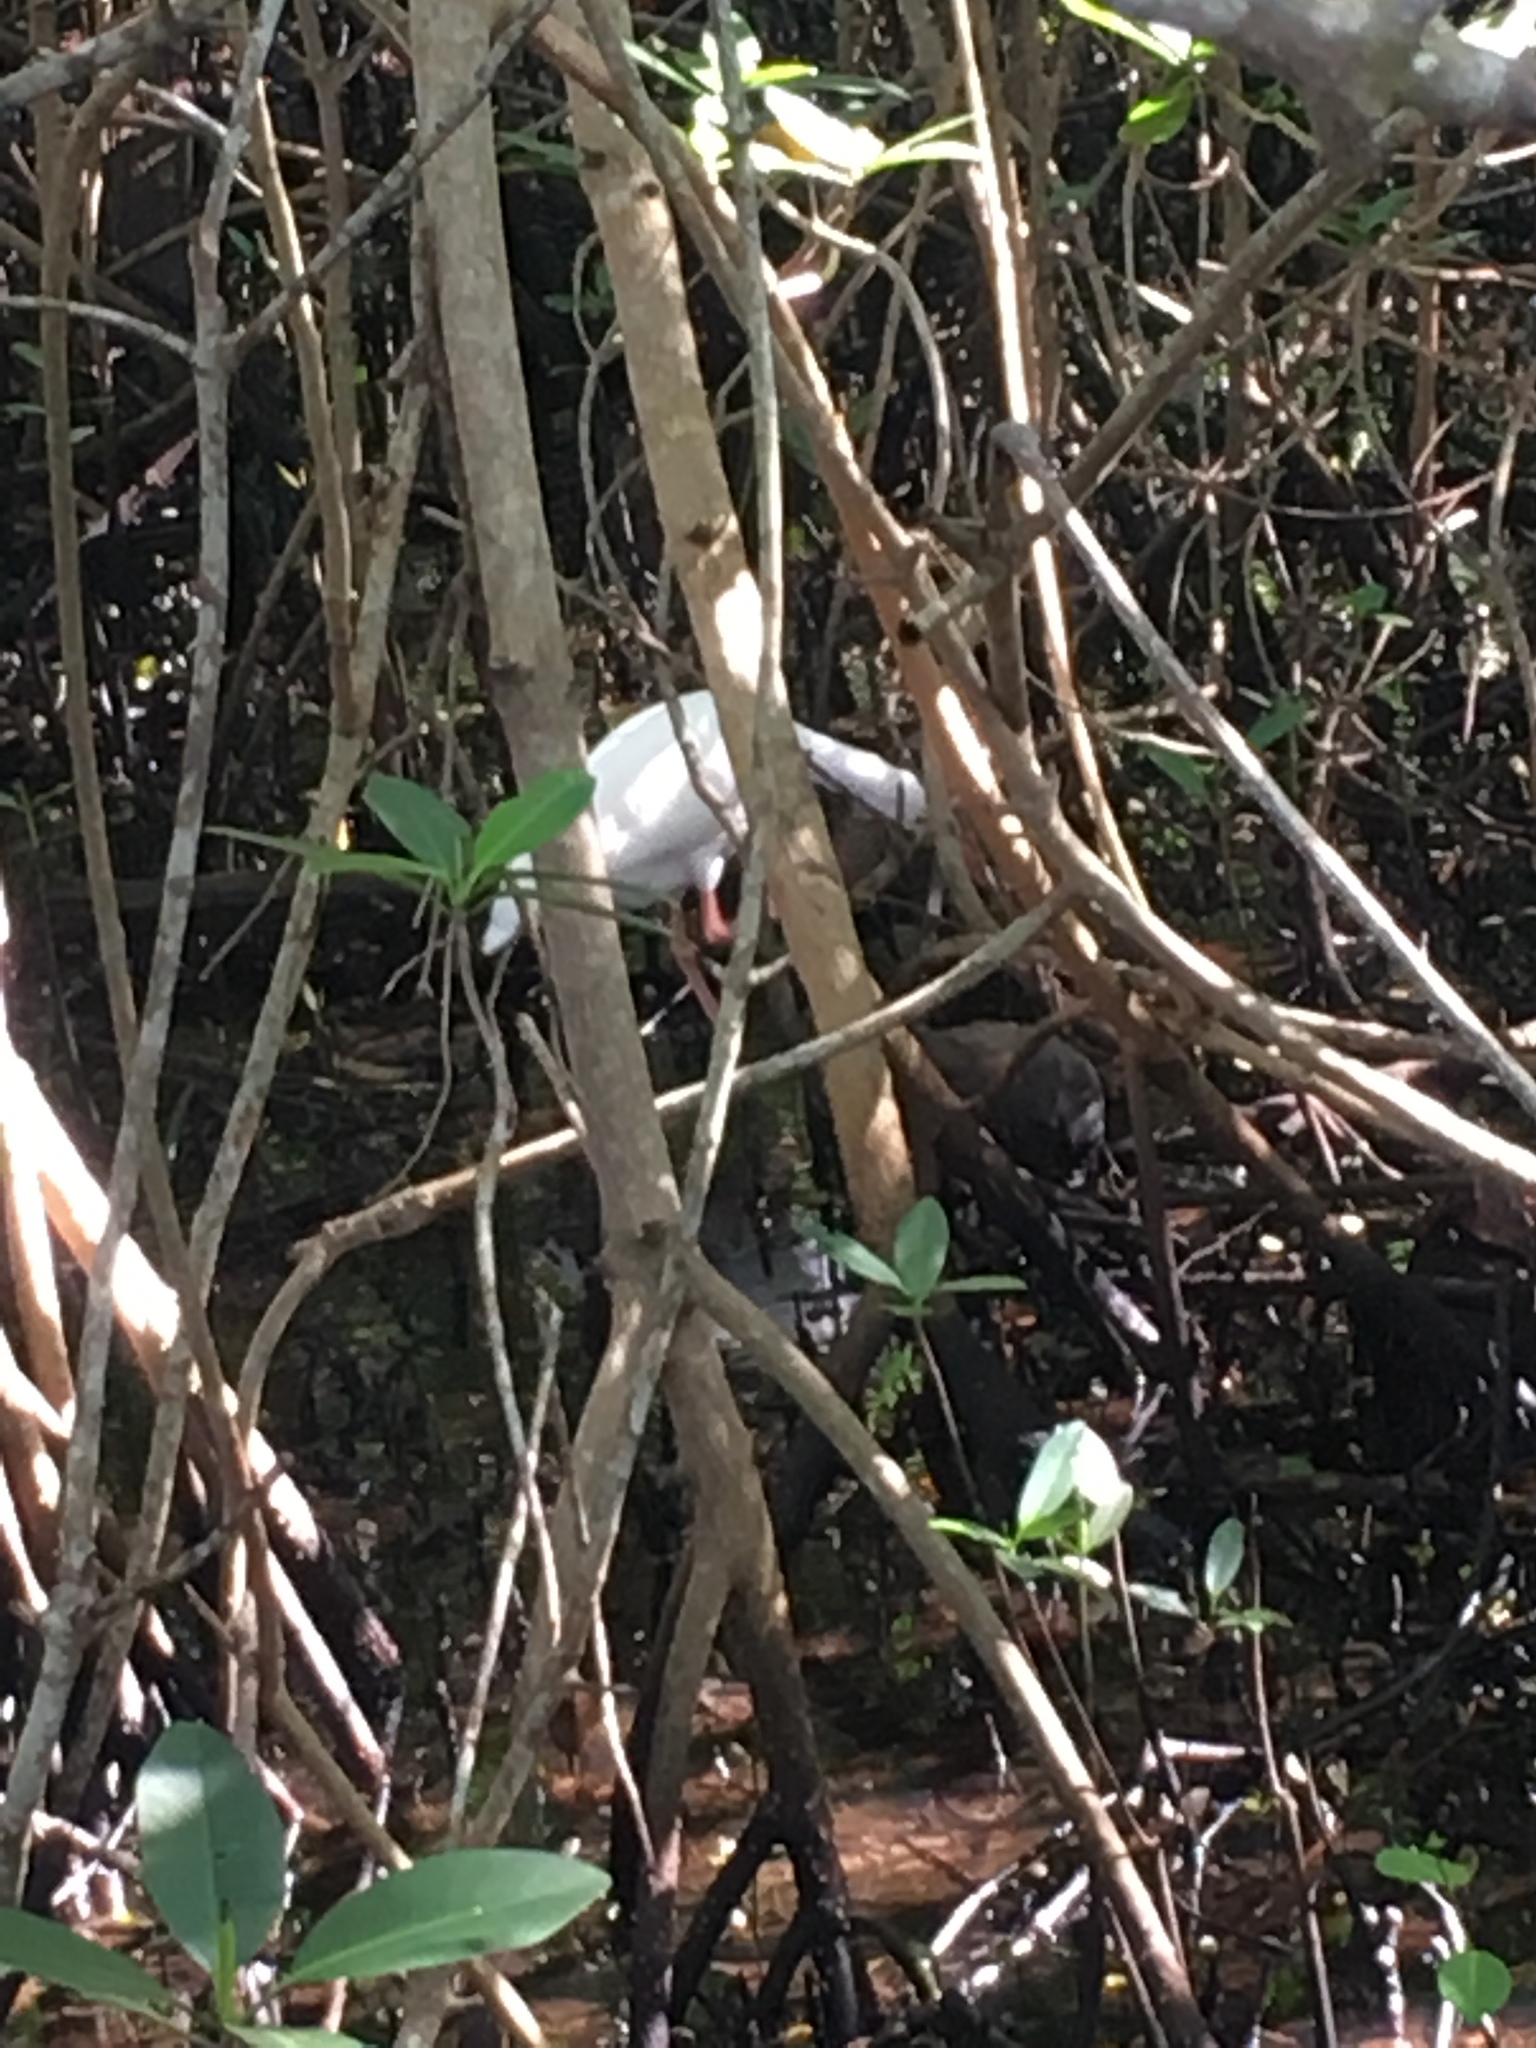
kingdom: Animalia
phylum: Chordata
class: Aves
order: Pelecaniformes
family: Threskiornithidae
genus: Eudocimus
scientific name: Eudocimus albus
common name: White ibis
